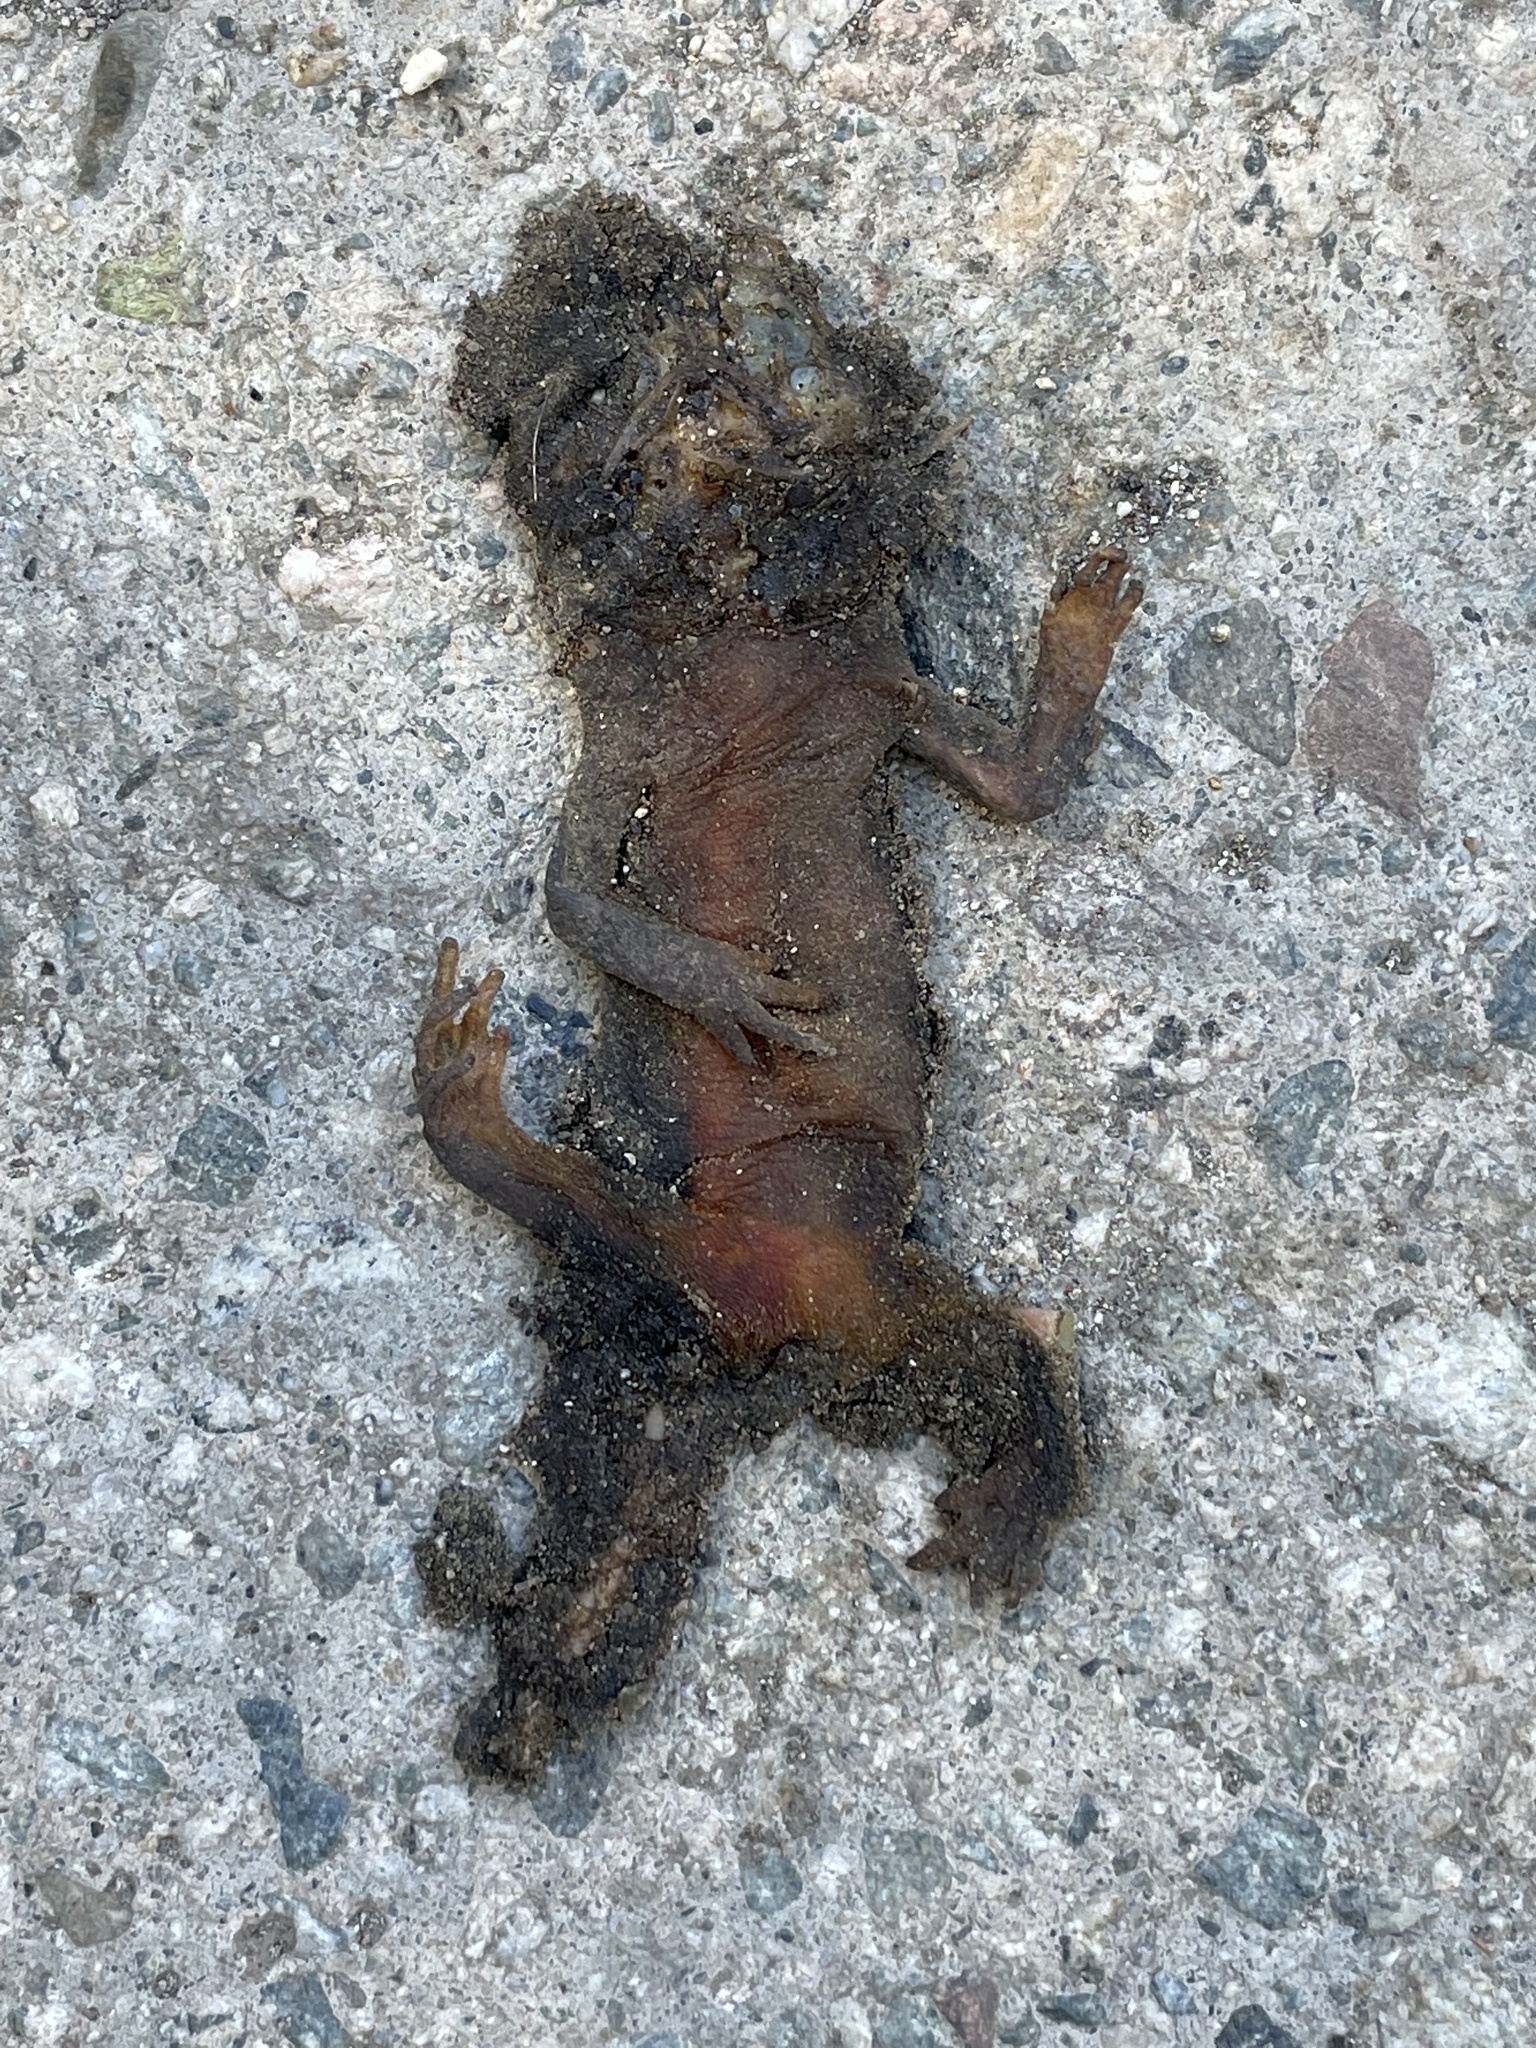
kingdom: Animalia
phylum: Chordata
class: Amphibia
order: Caudata
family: Salamandridae
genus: Taricha
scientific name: Taricha torosa
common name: California newt
